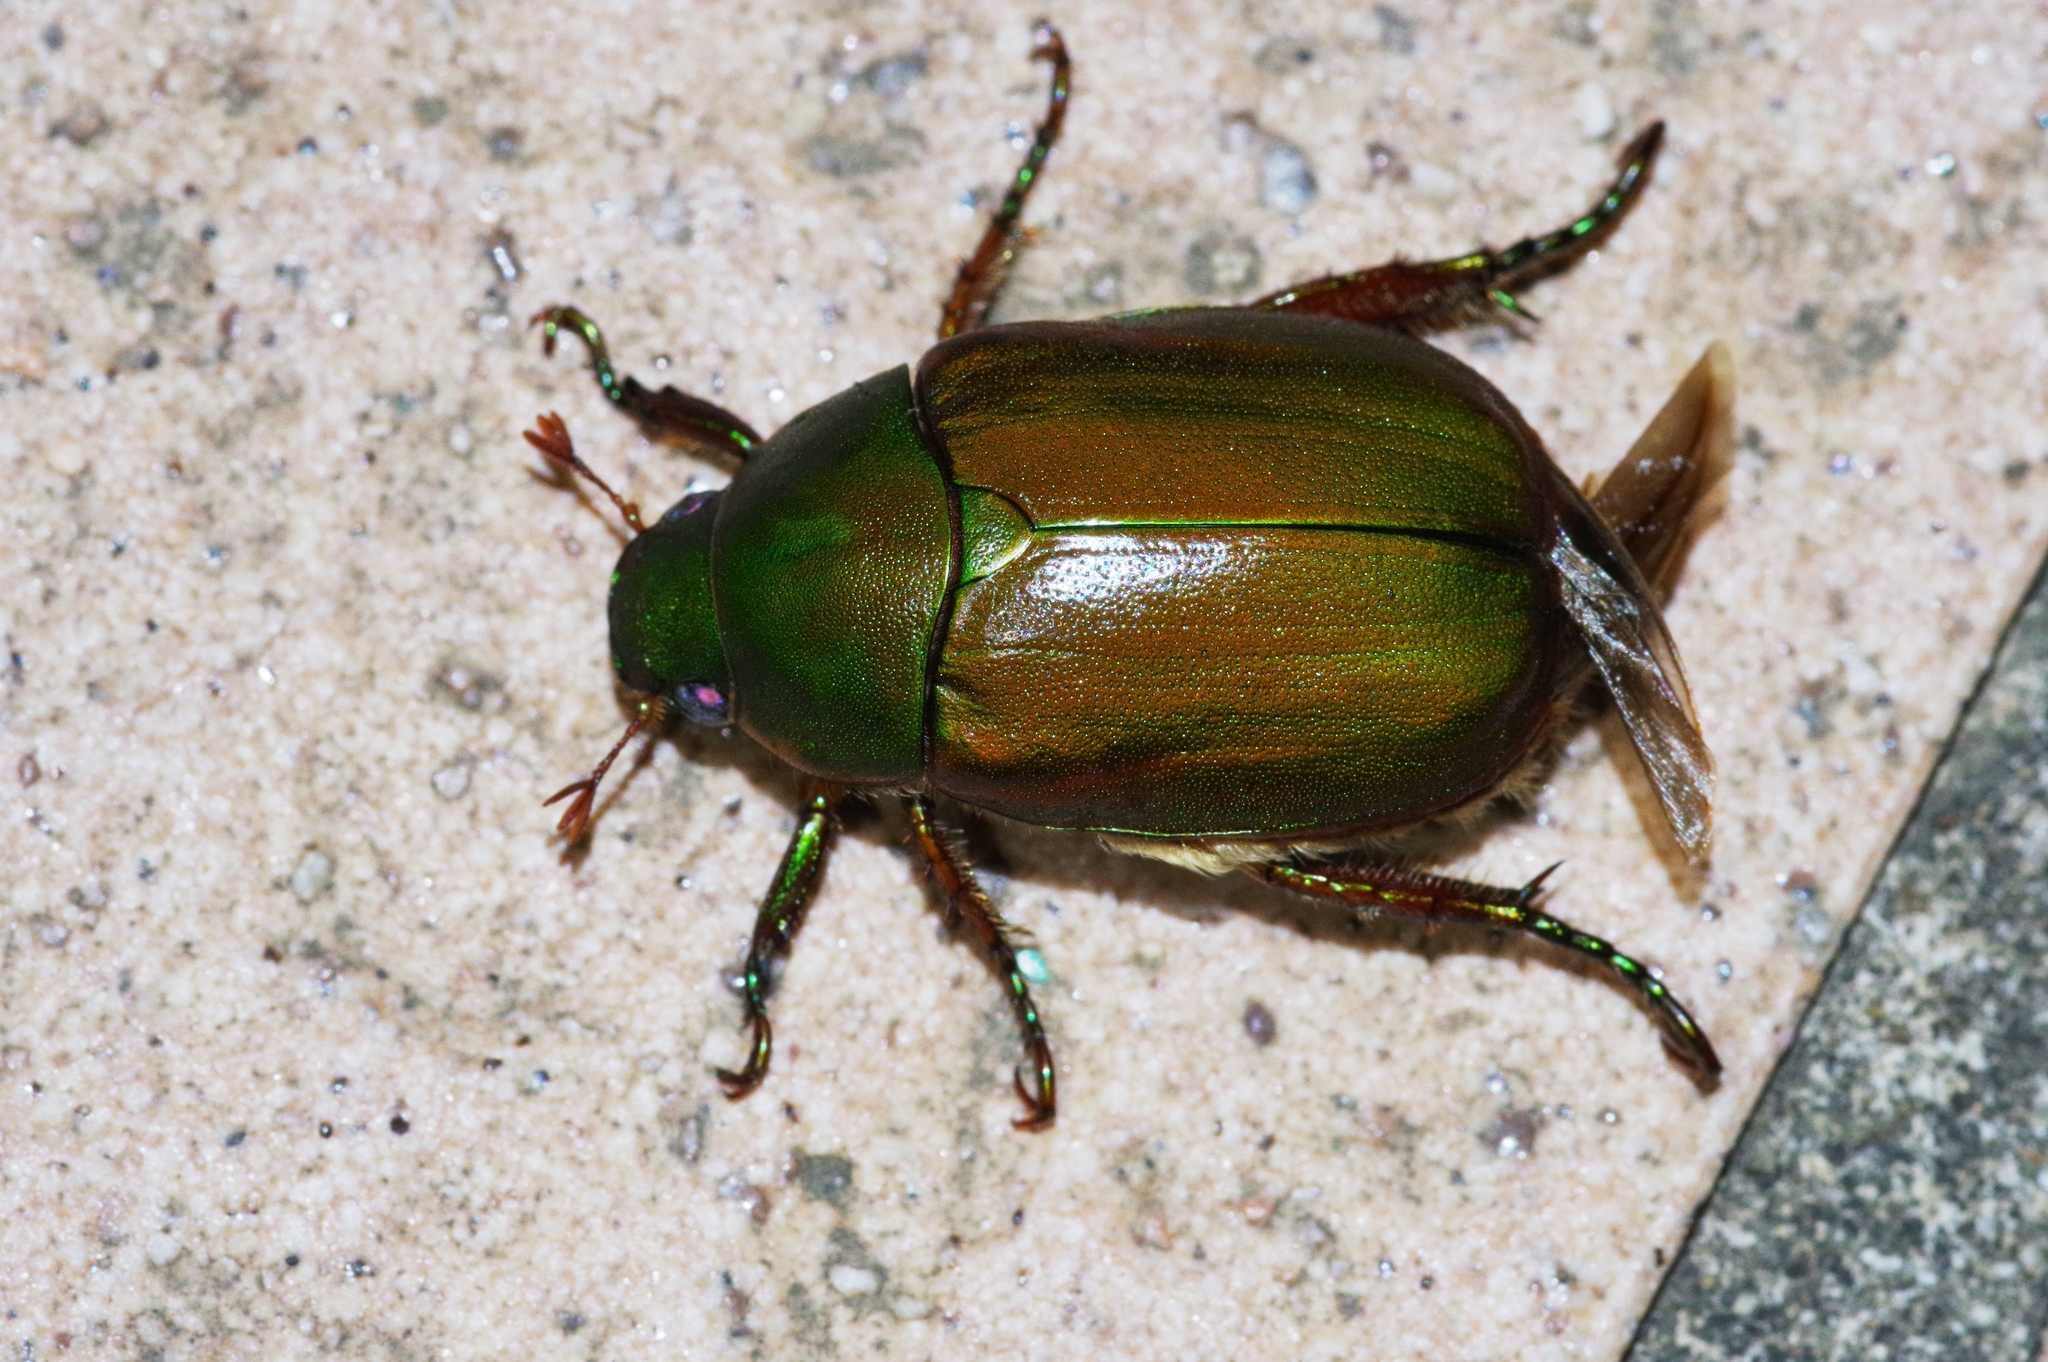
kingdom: Animalia
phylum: Arthropoda
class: Insecta
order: Coleoptera
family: Scarabaeidae
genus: Anomala
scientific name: Anomala albopilosa
